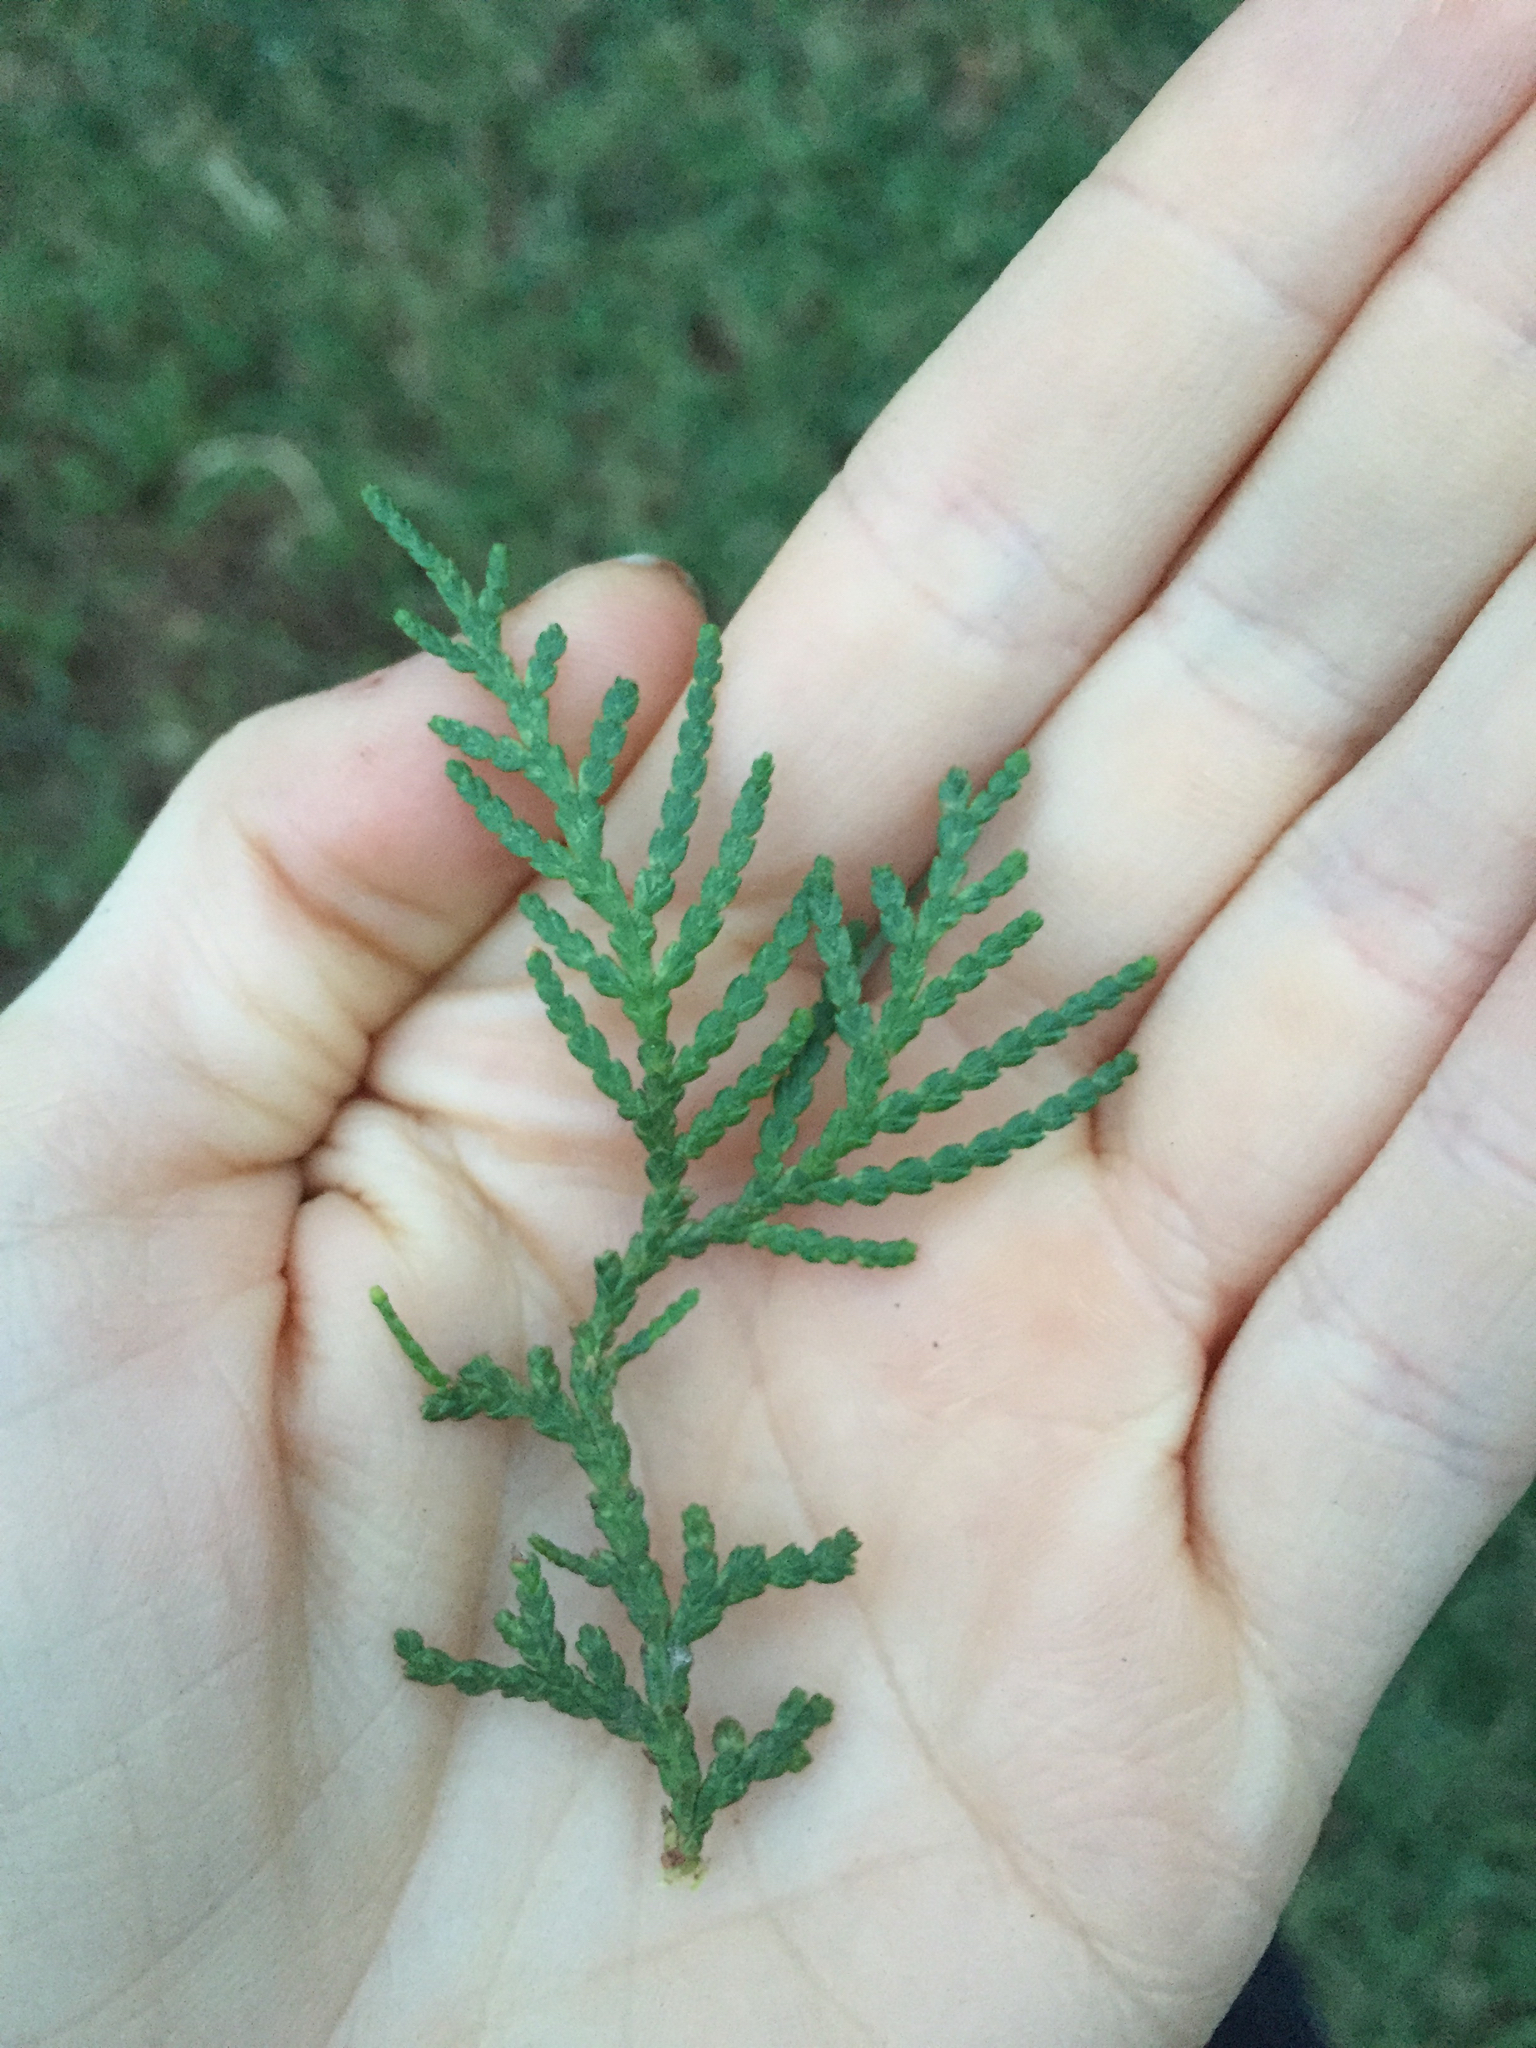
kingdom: Plantae
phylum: Tracheophyta
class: Pinopsida
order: Pinales
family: Cupressaceae
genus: Platycladus
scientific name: Platycladus orientalis
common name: Chinese thuja
